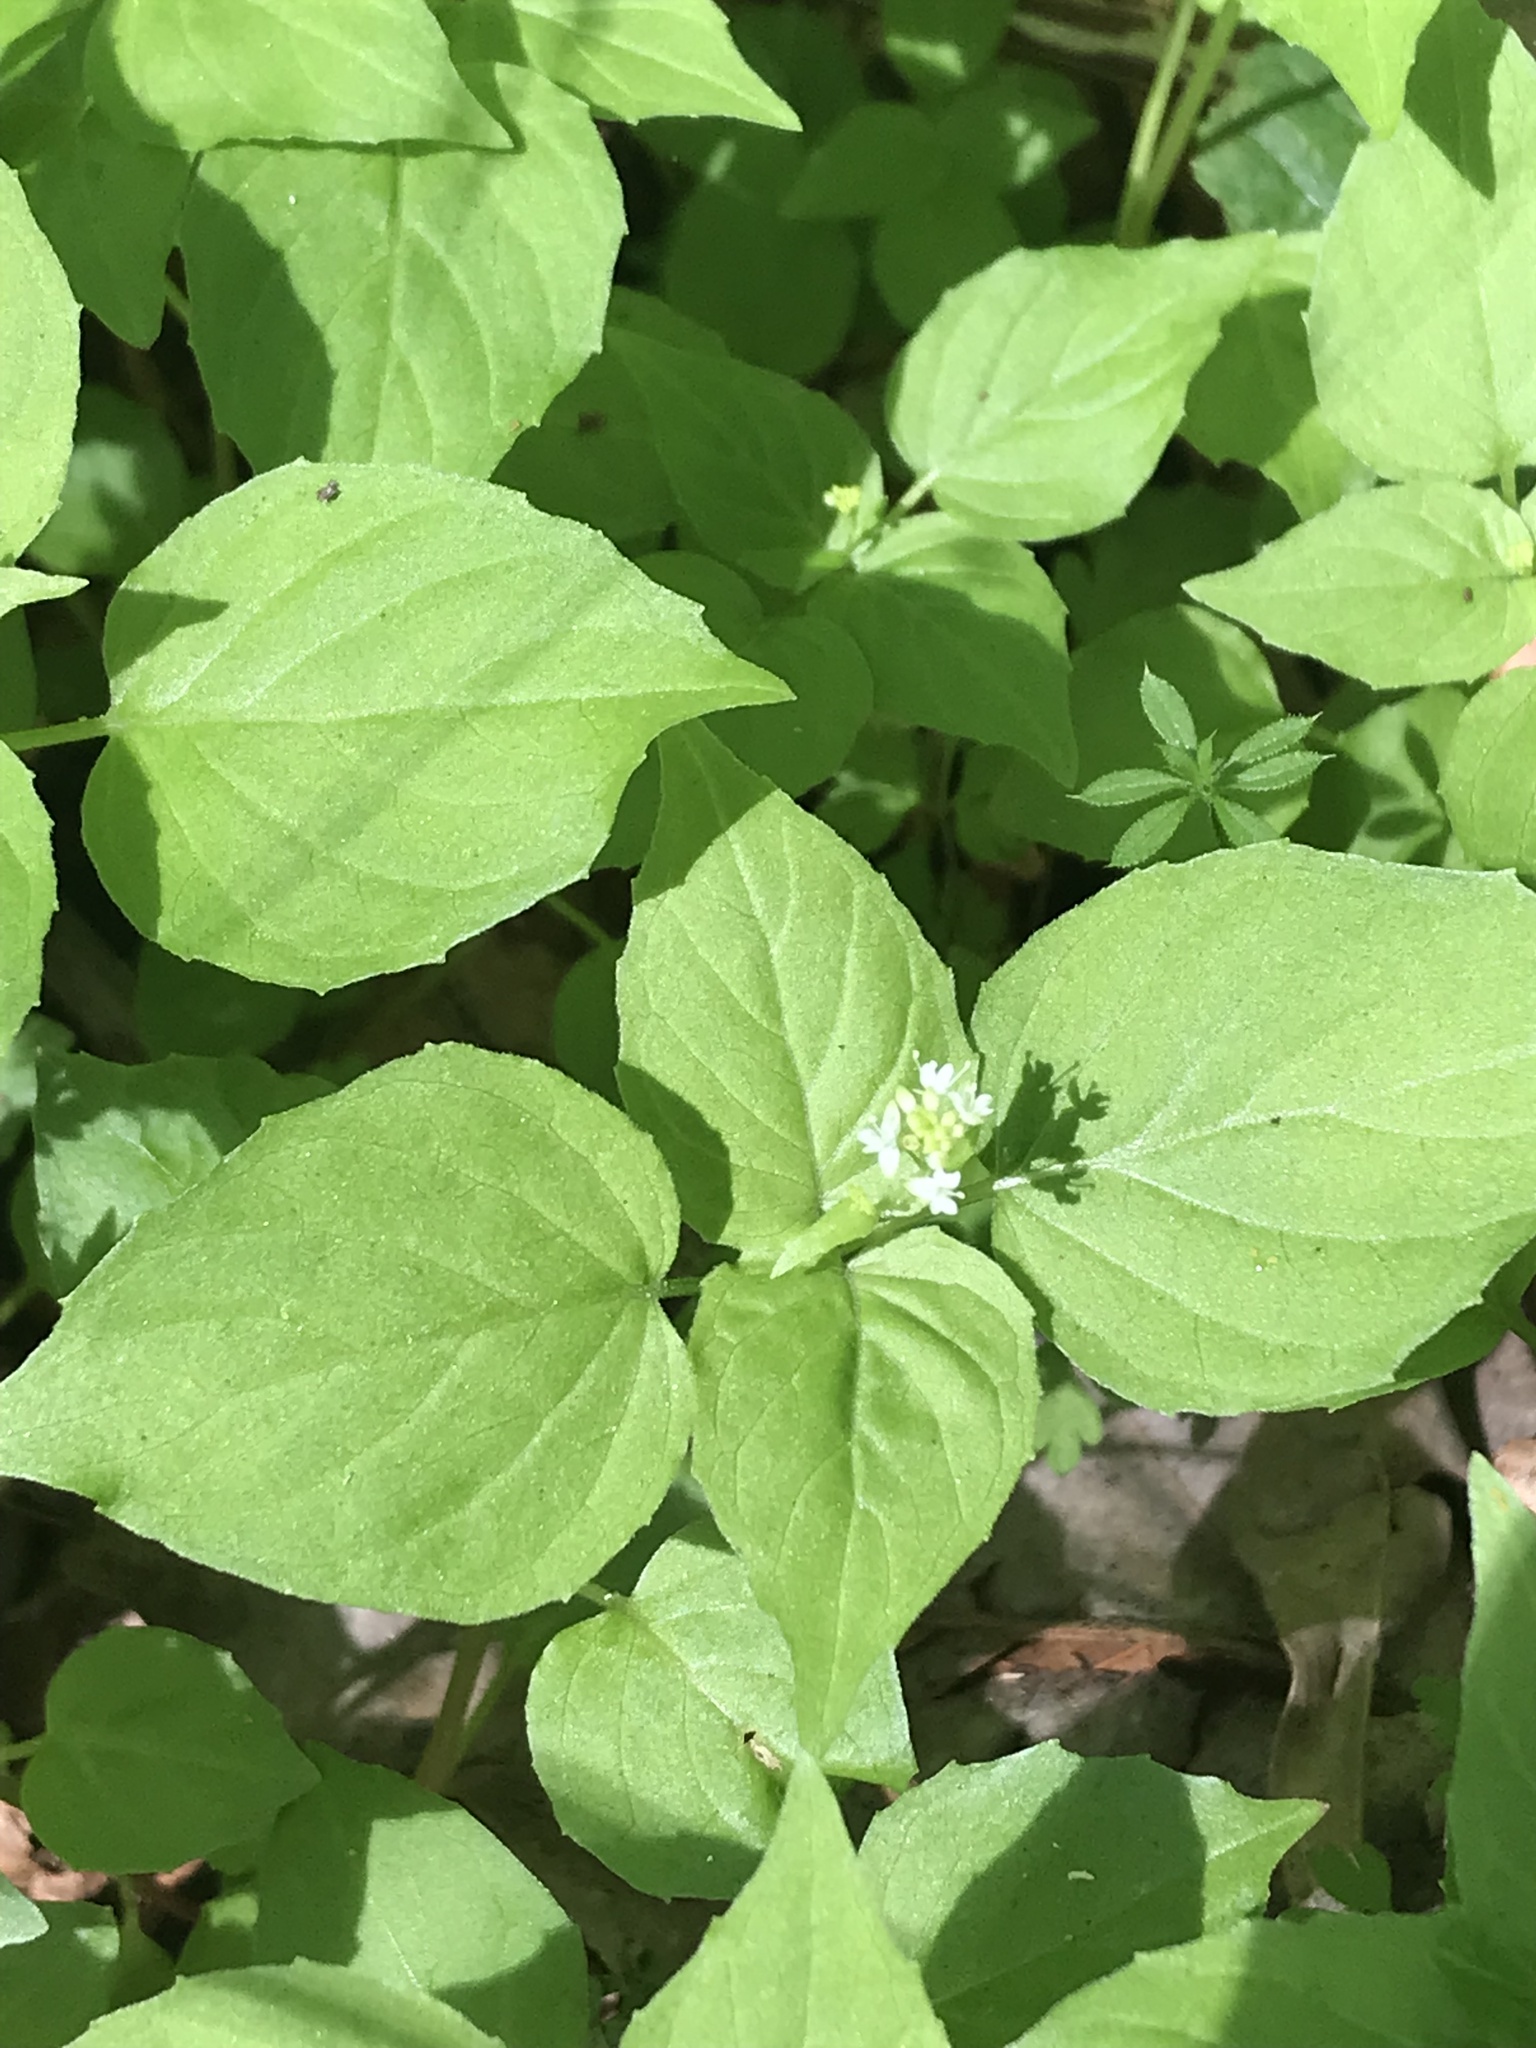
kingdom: Plantae
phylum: Tracheophyta
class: Magnoliopsida
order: Myrtales
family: Onagraceae
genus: Circaea
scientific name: Circaea alpina
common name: Alpine enchanter's-nightshade
